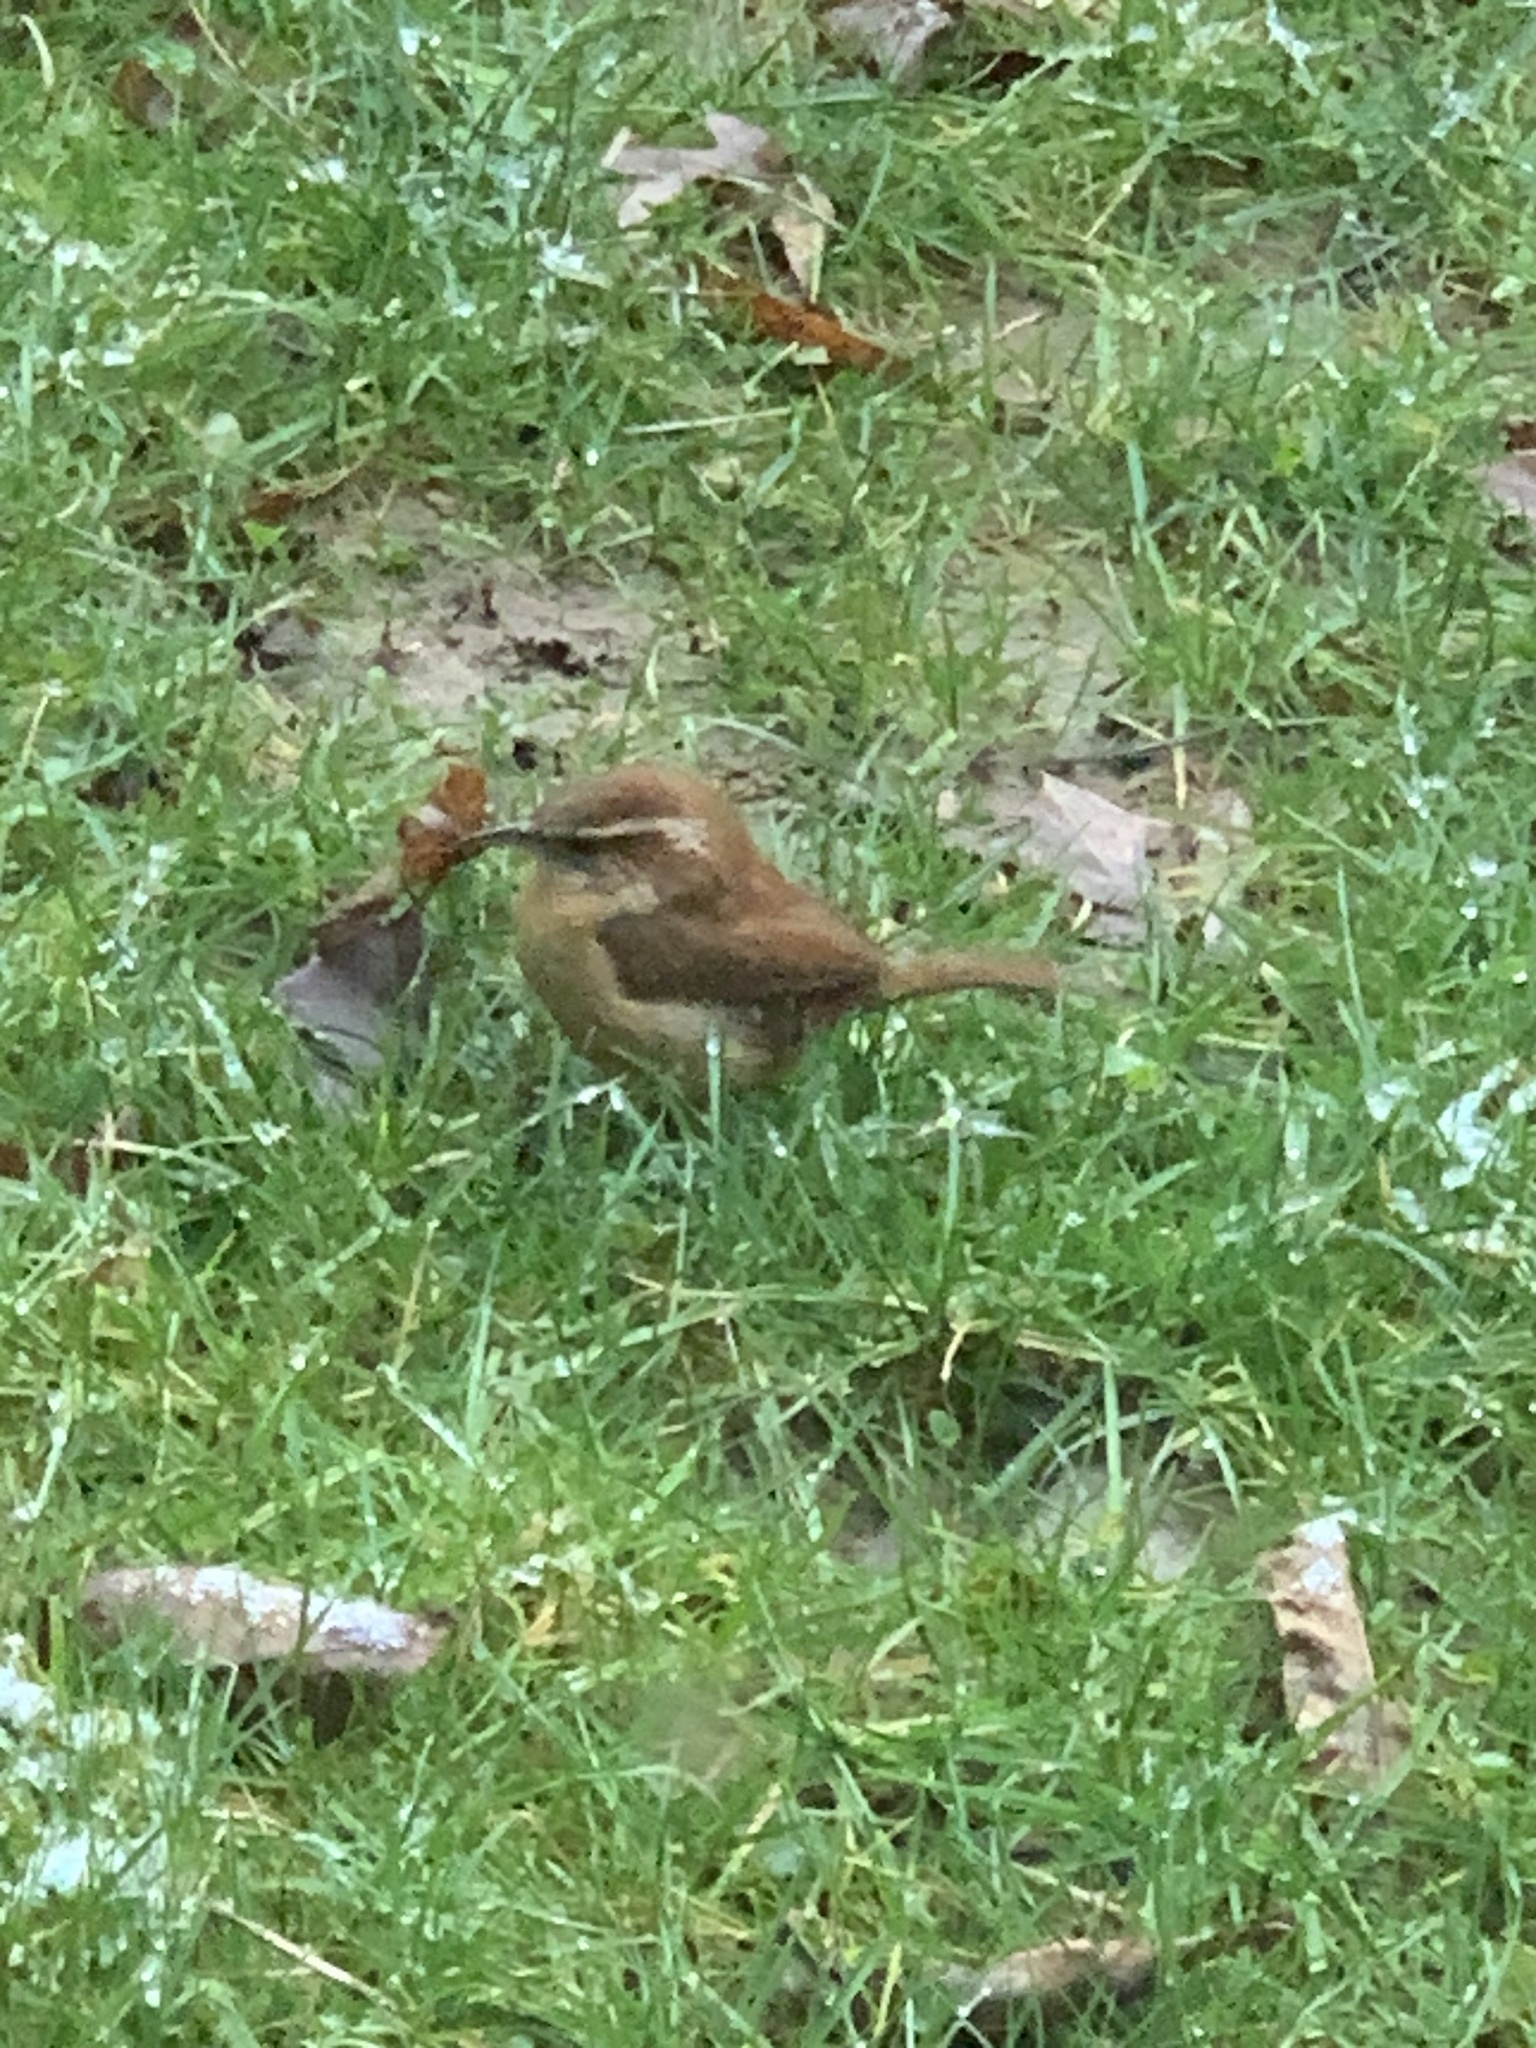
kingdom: Animalia
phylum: Chordata
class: Aves
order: Passeriformes
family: Troglodytidae
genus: Thryothorus
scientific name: Thryothorus ludovicianus
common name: Carolina wren
